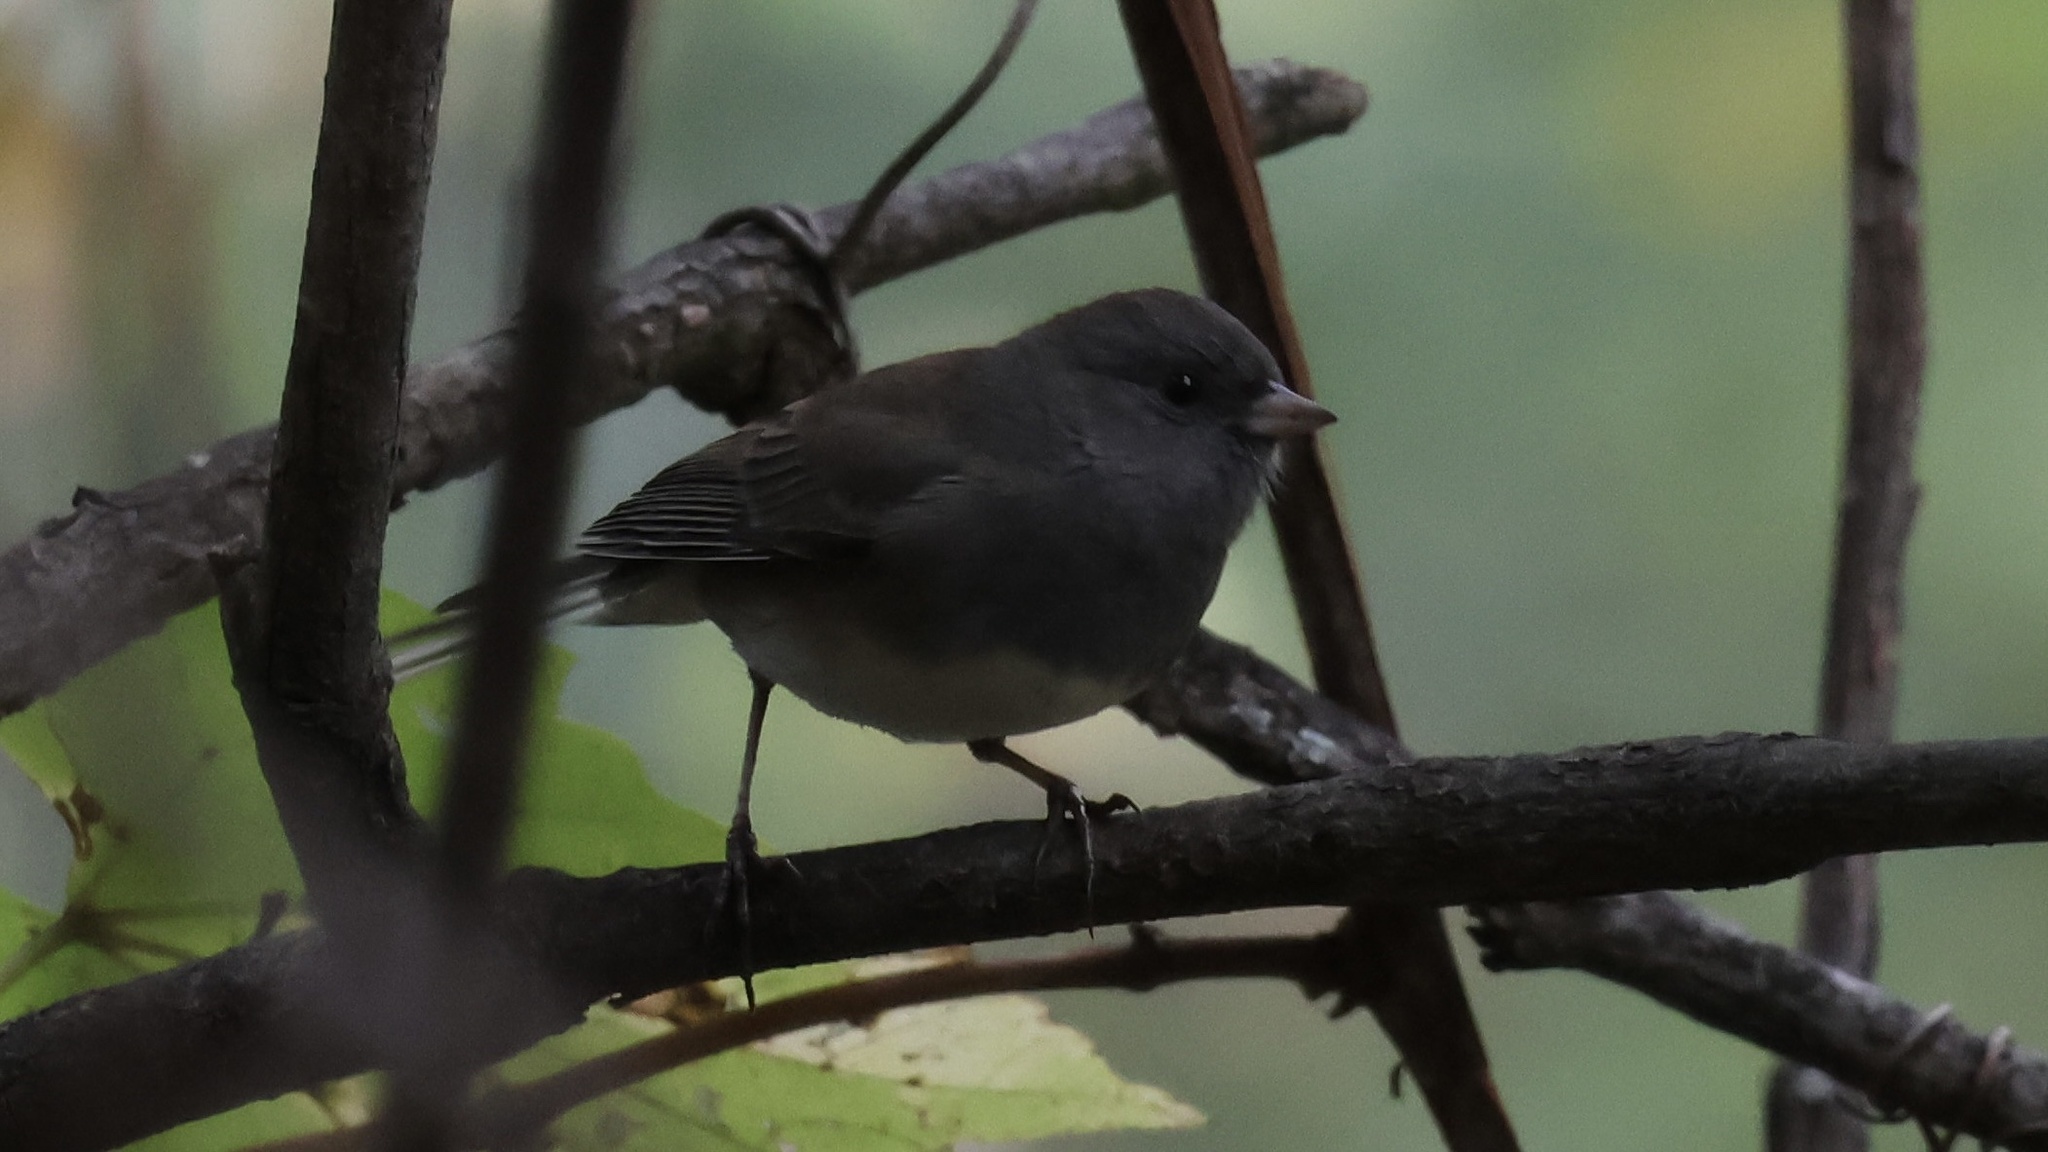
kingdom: Animalia
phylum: Chordata
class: Aves
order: Passeriformes
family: Passerellidae
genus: Junco
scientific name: Junco hyemalis
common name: Dark-eyed junco
